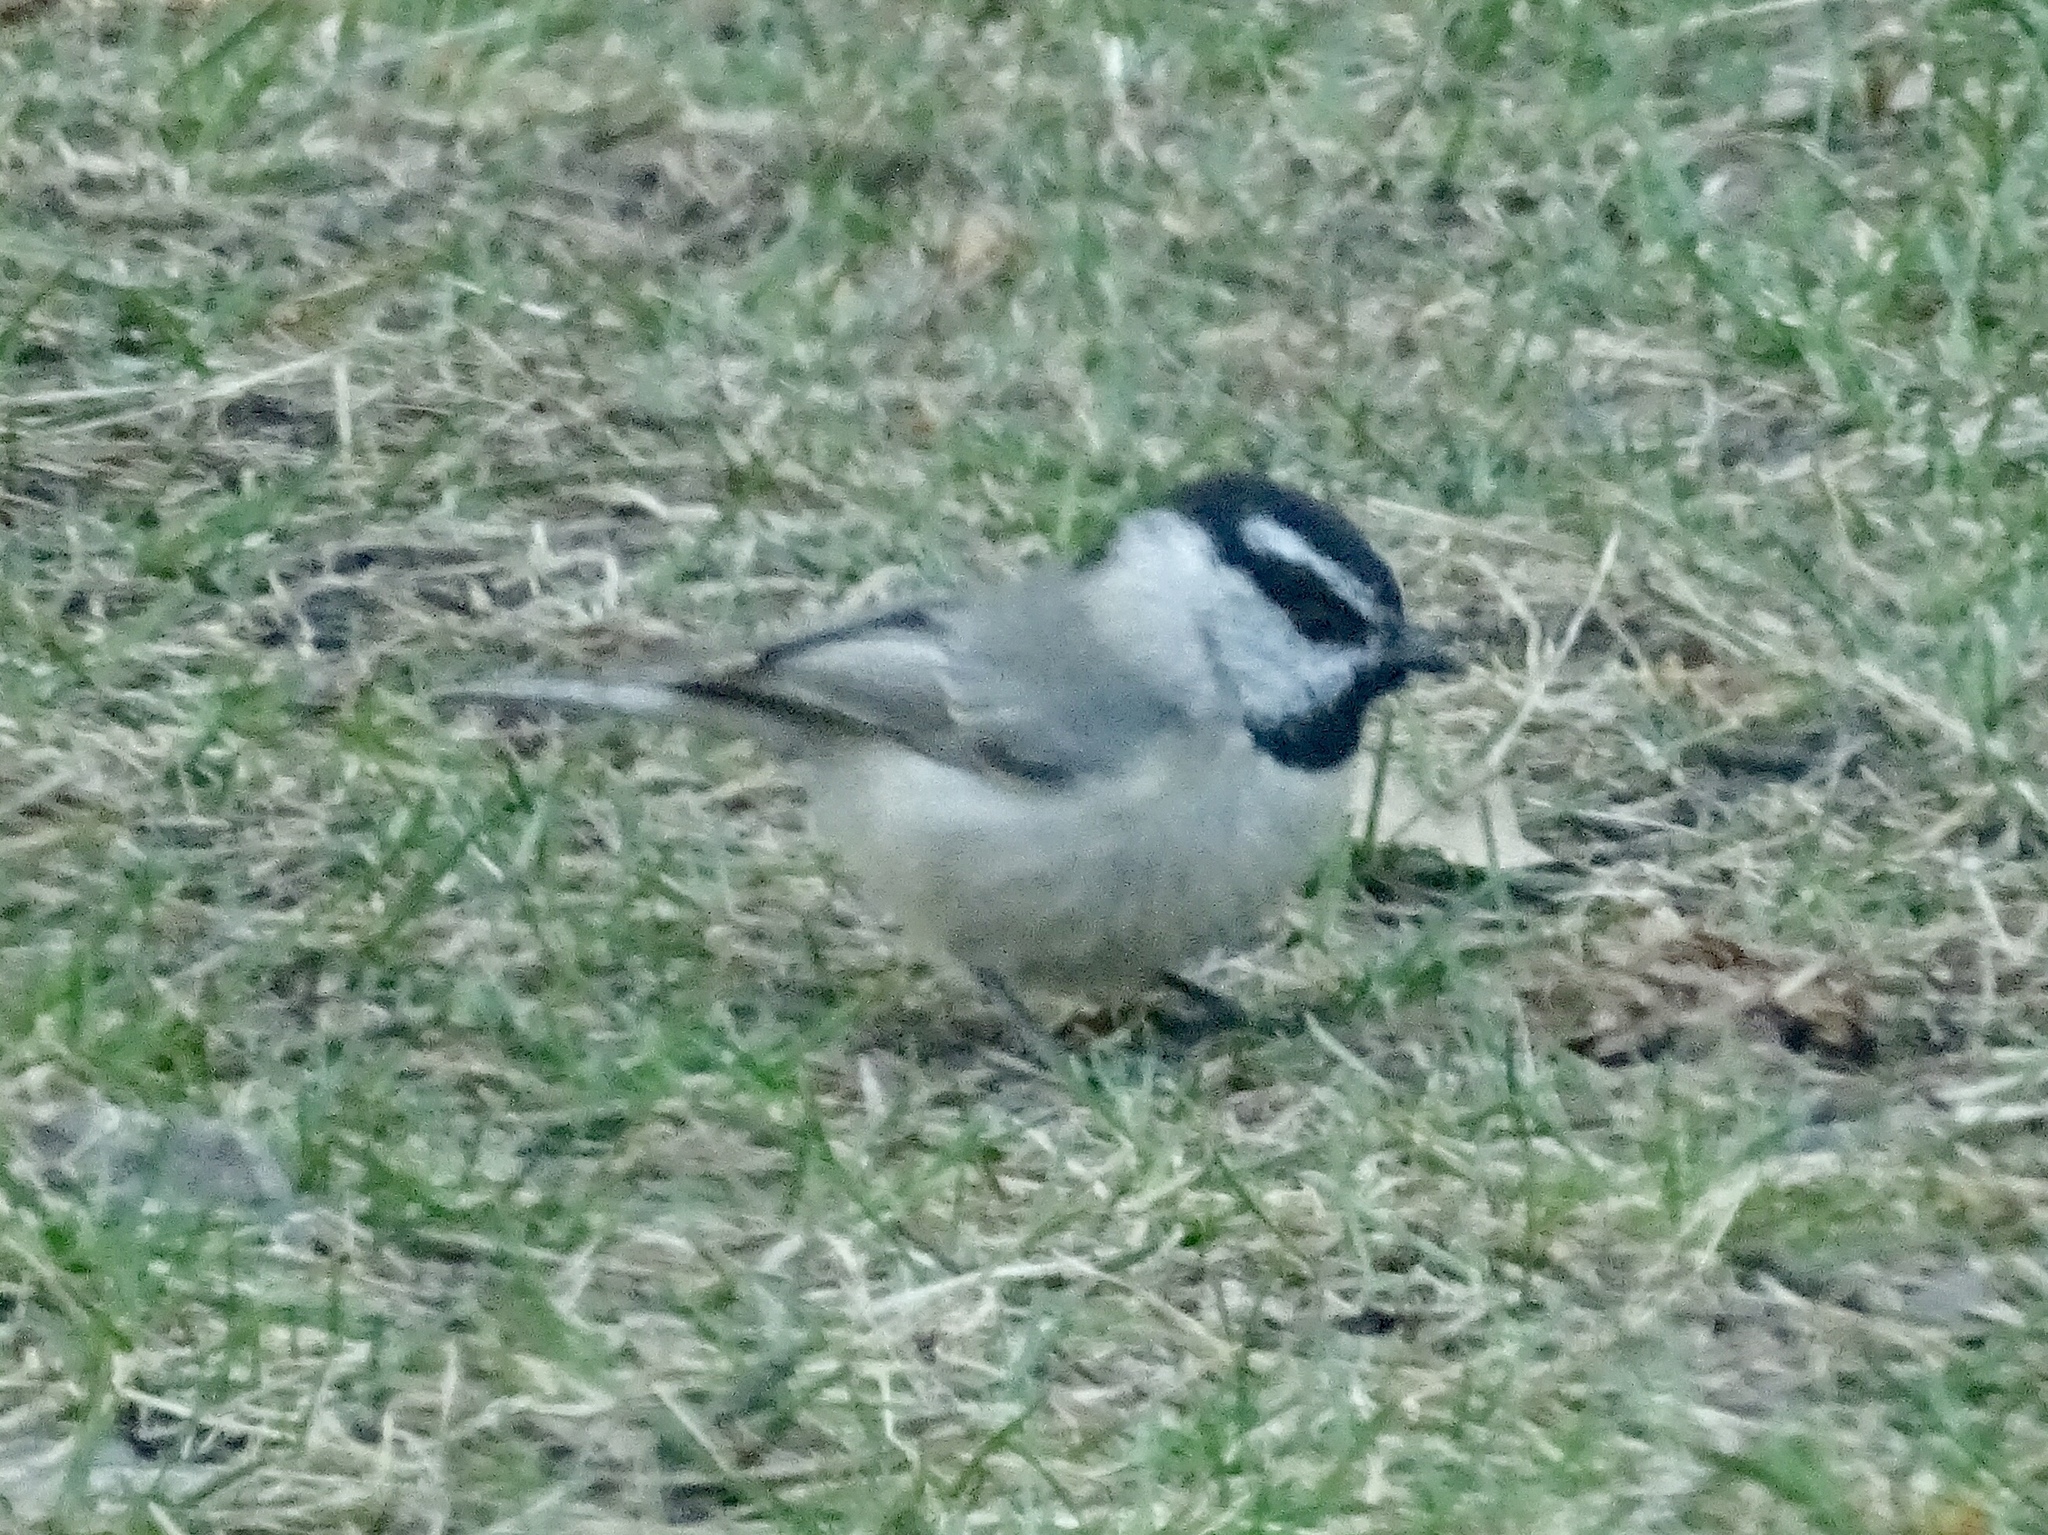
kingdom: Animalia
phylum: Chordata
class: Aves
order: Passeriformes
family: Paridae
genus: Poecile
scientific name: Poecile gambeli
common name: Mountain chickadee
